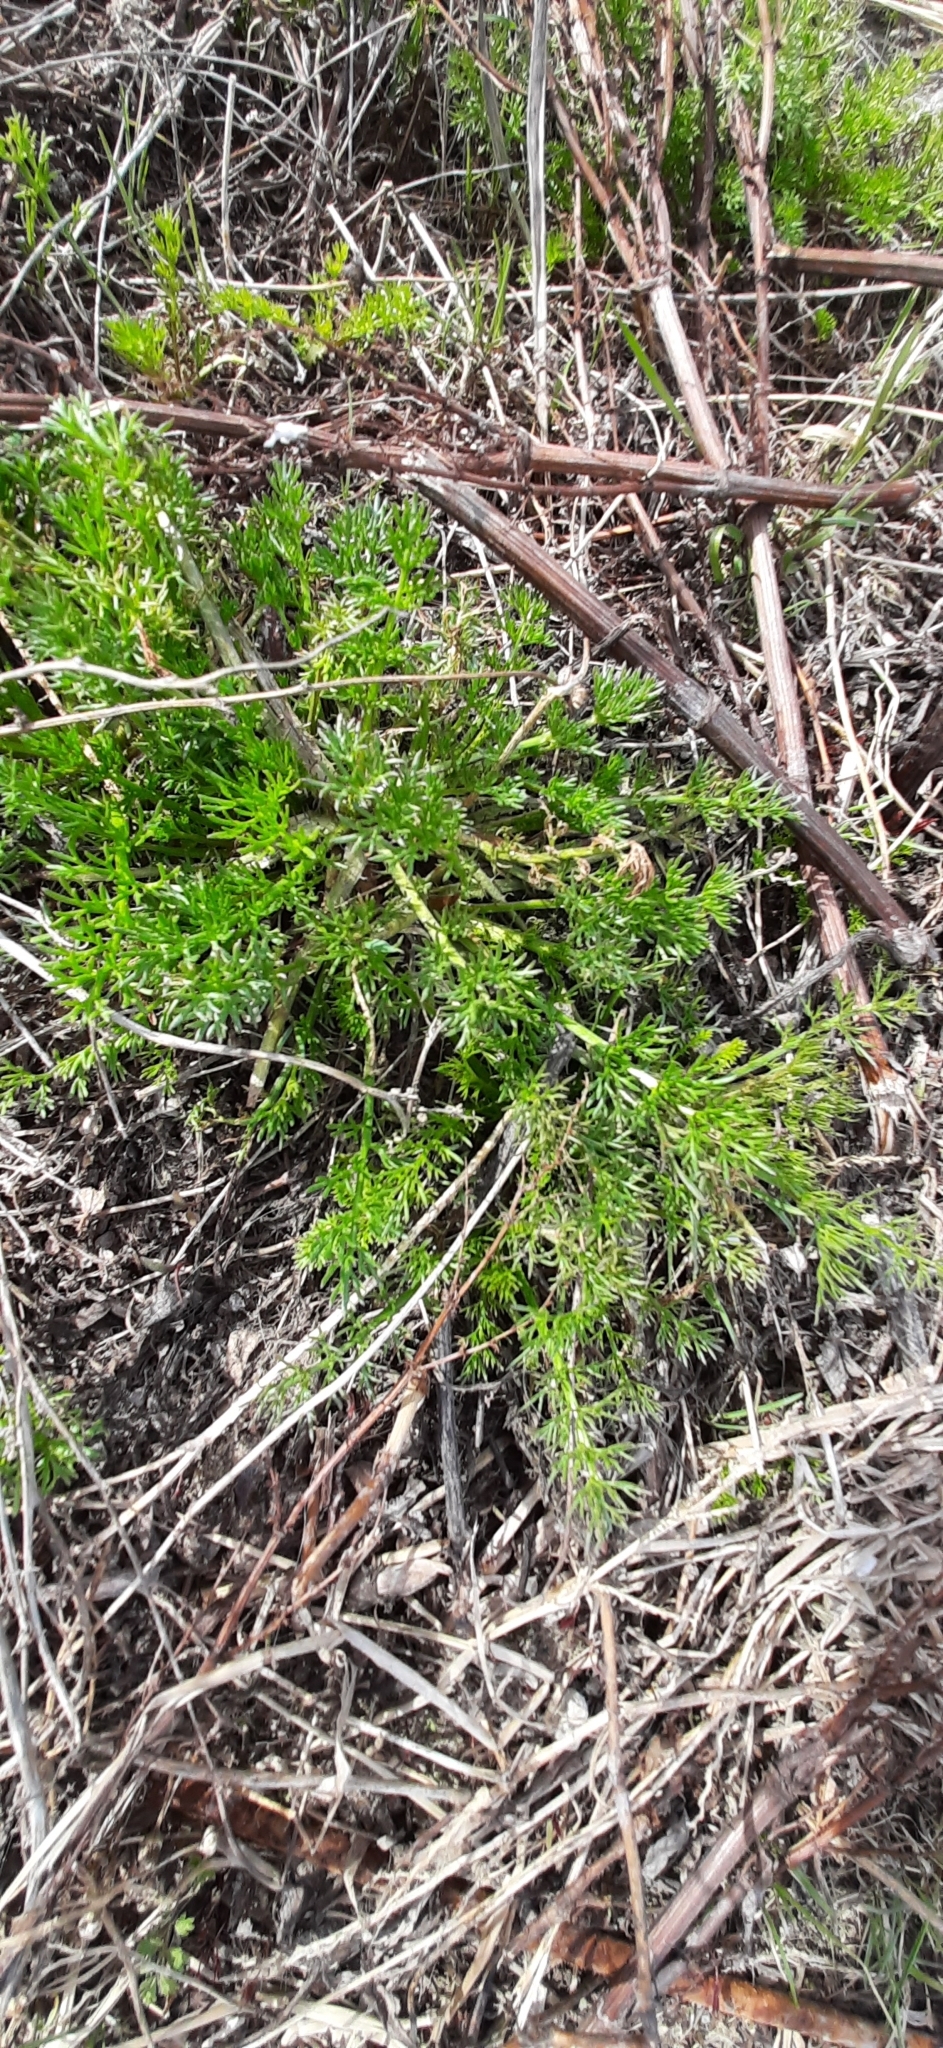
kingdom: Plantae
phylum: Tracheophyta
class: Magnoliopsida
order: Asterales
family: Asteraceae
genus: Tripleurospermum
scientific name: Tripleurospermum inodorum
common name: Scentless mayweed
